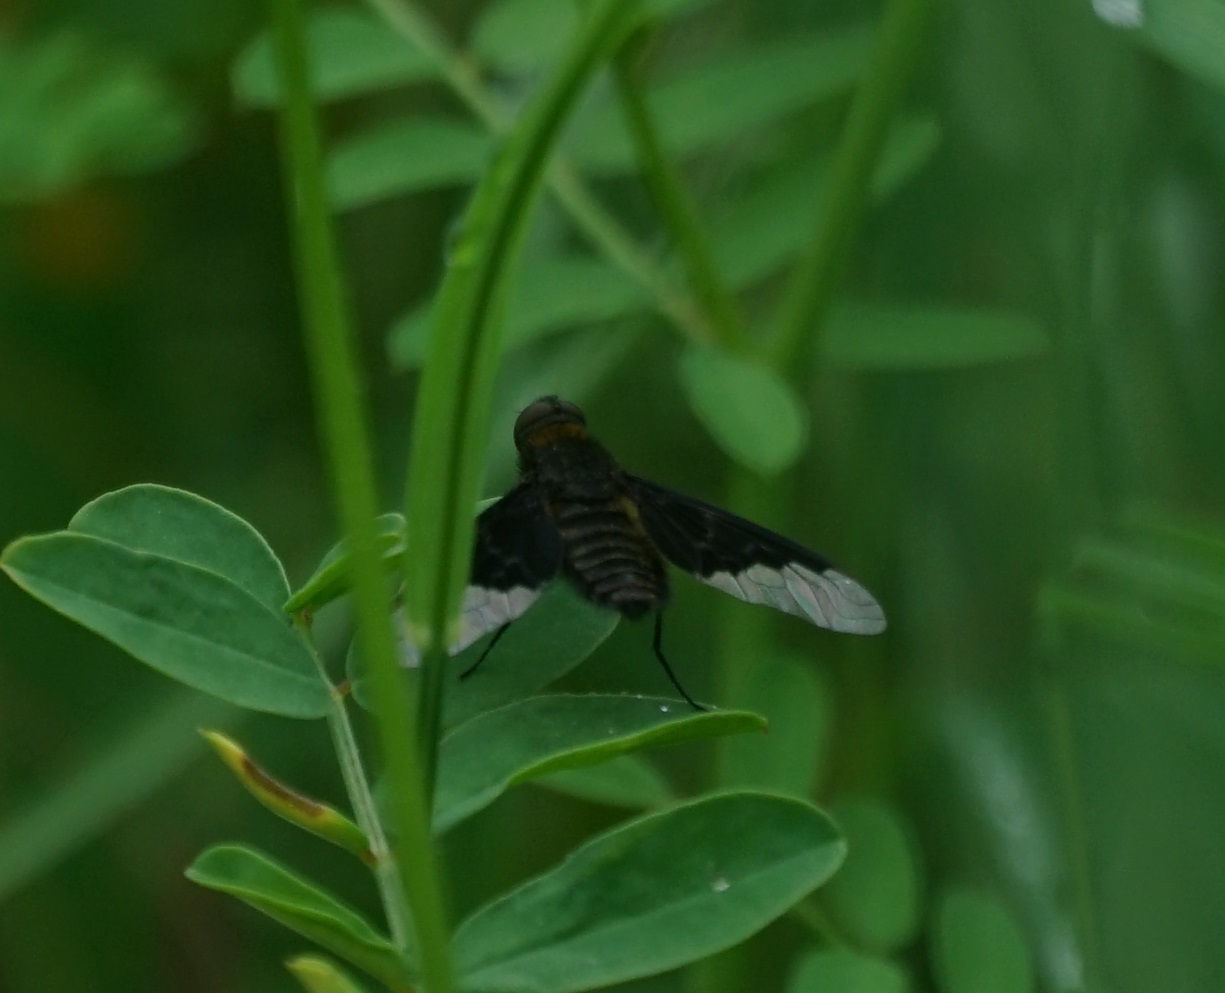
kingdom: Animalia
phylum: Arthropoda
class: Insecta
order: Diptera
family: Bombyliidae
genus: Hemipenthes
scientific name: Hemipenthes morio
